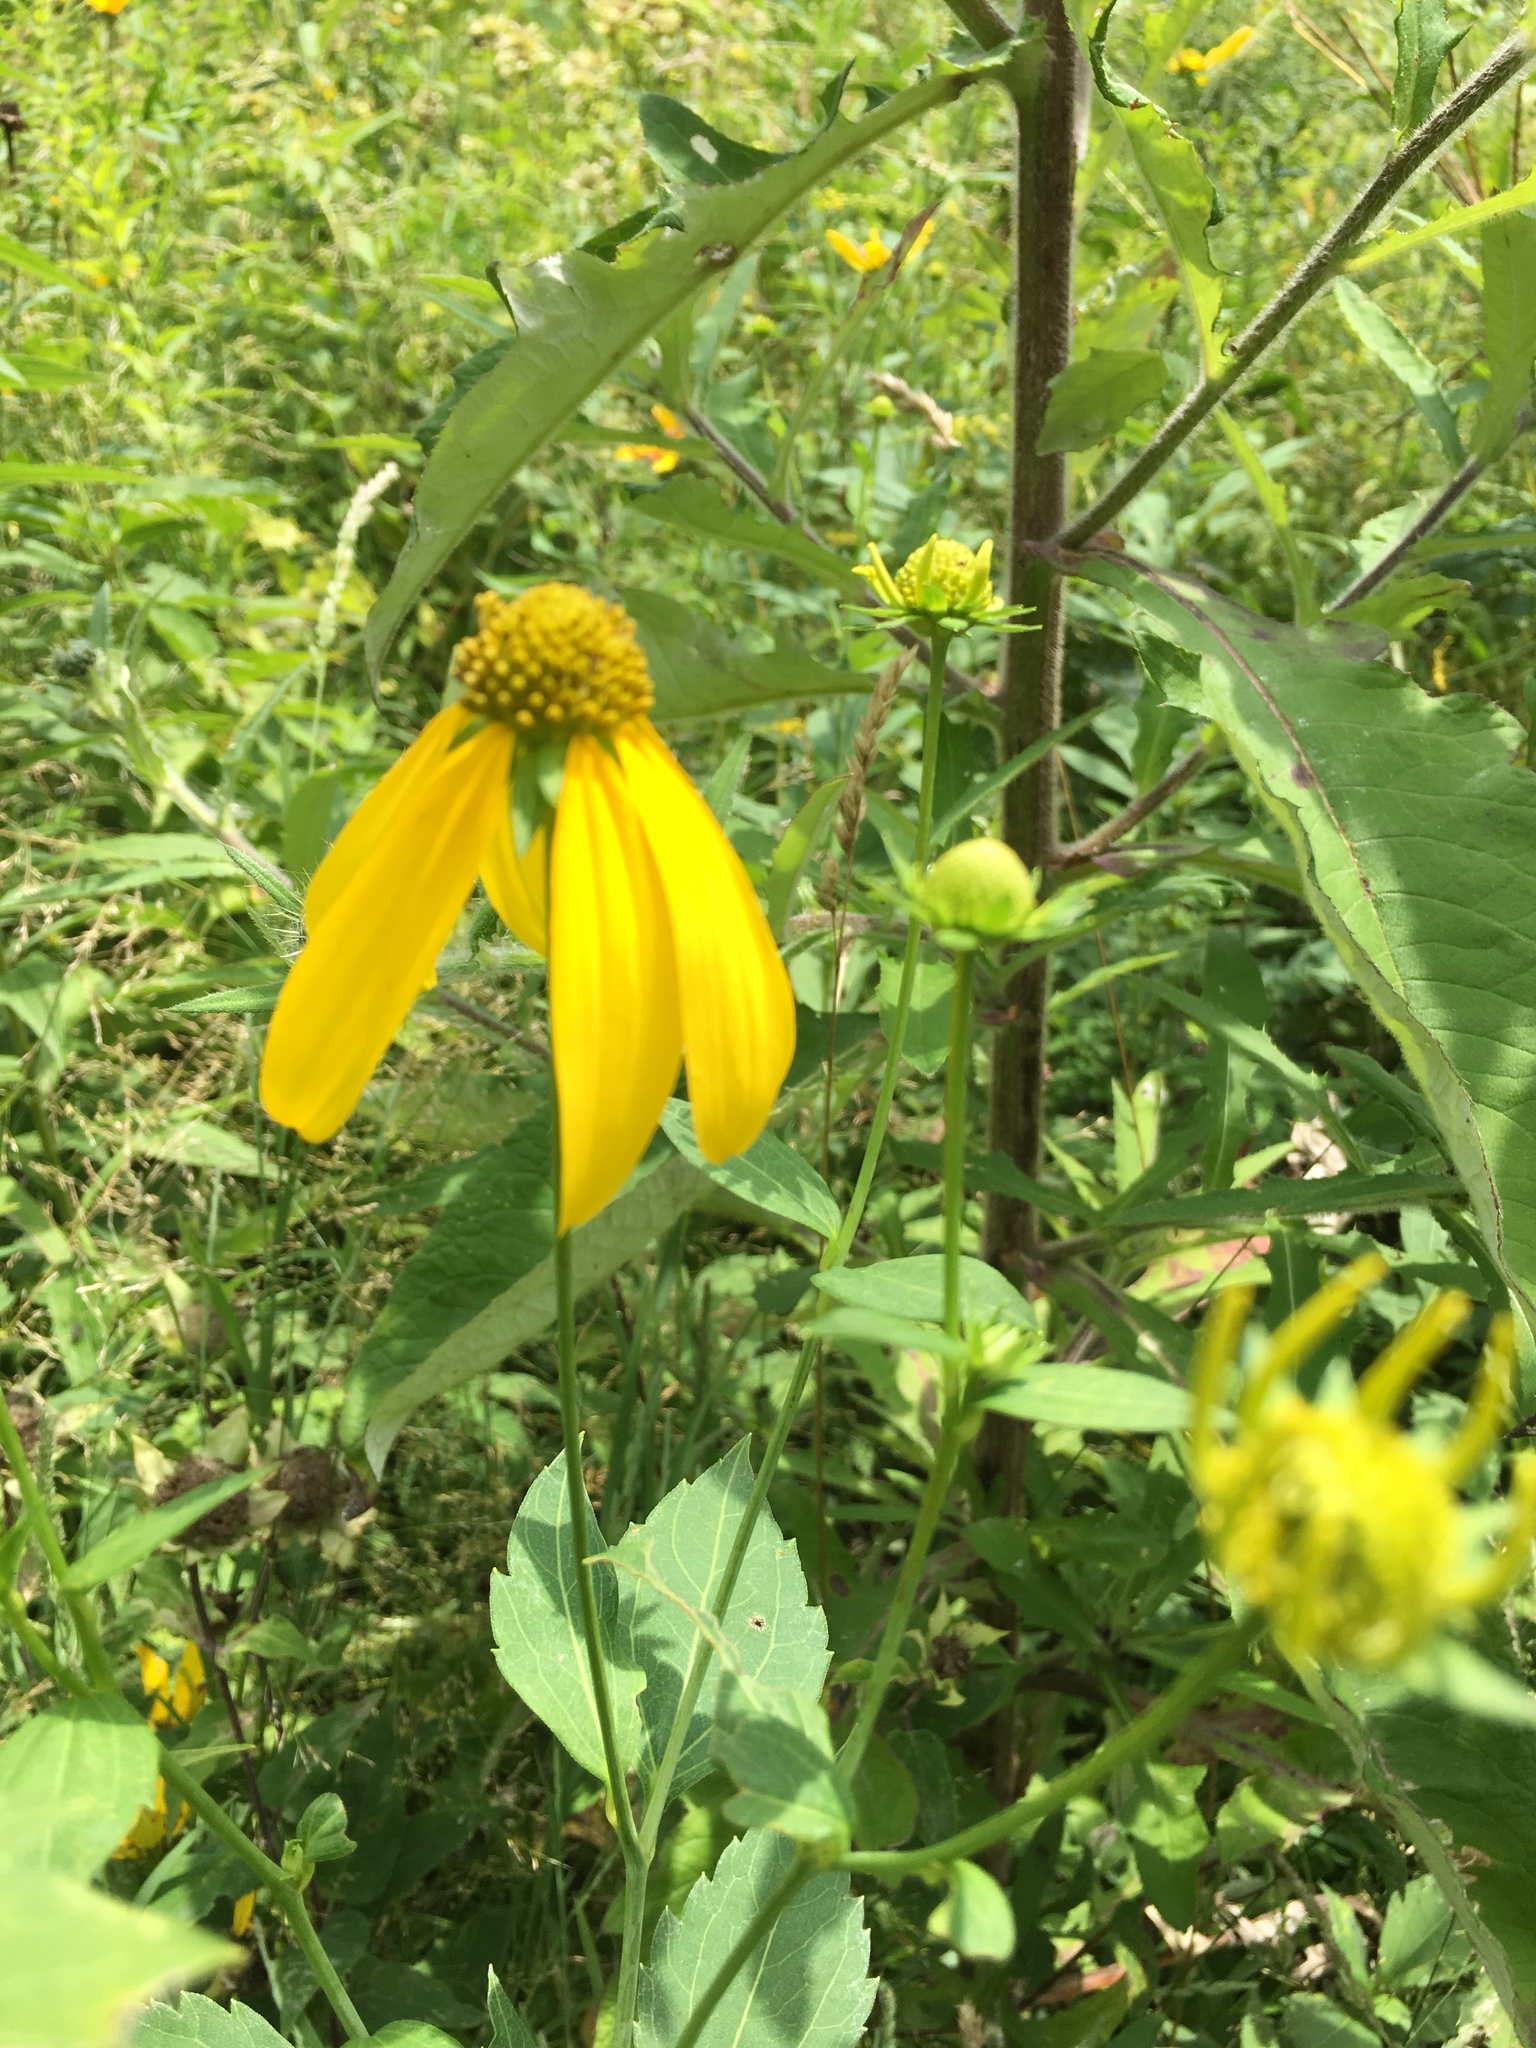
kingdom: Plantae
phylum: Tracheophyta
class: Magnoliopsida
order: Asterales
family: Asteraceae
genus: Rudbeckia
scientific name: Rudbeckia laciniata
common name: Coneflower
